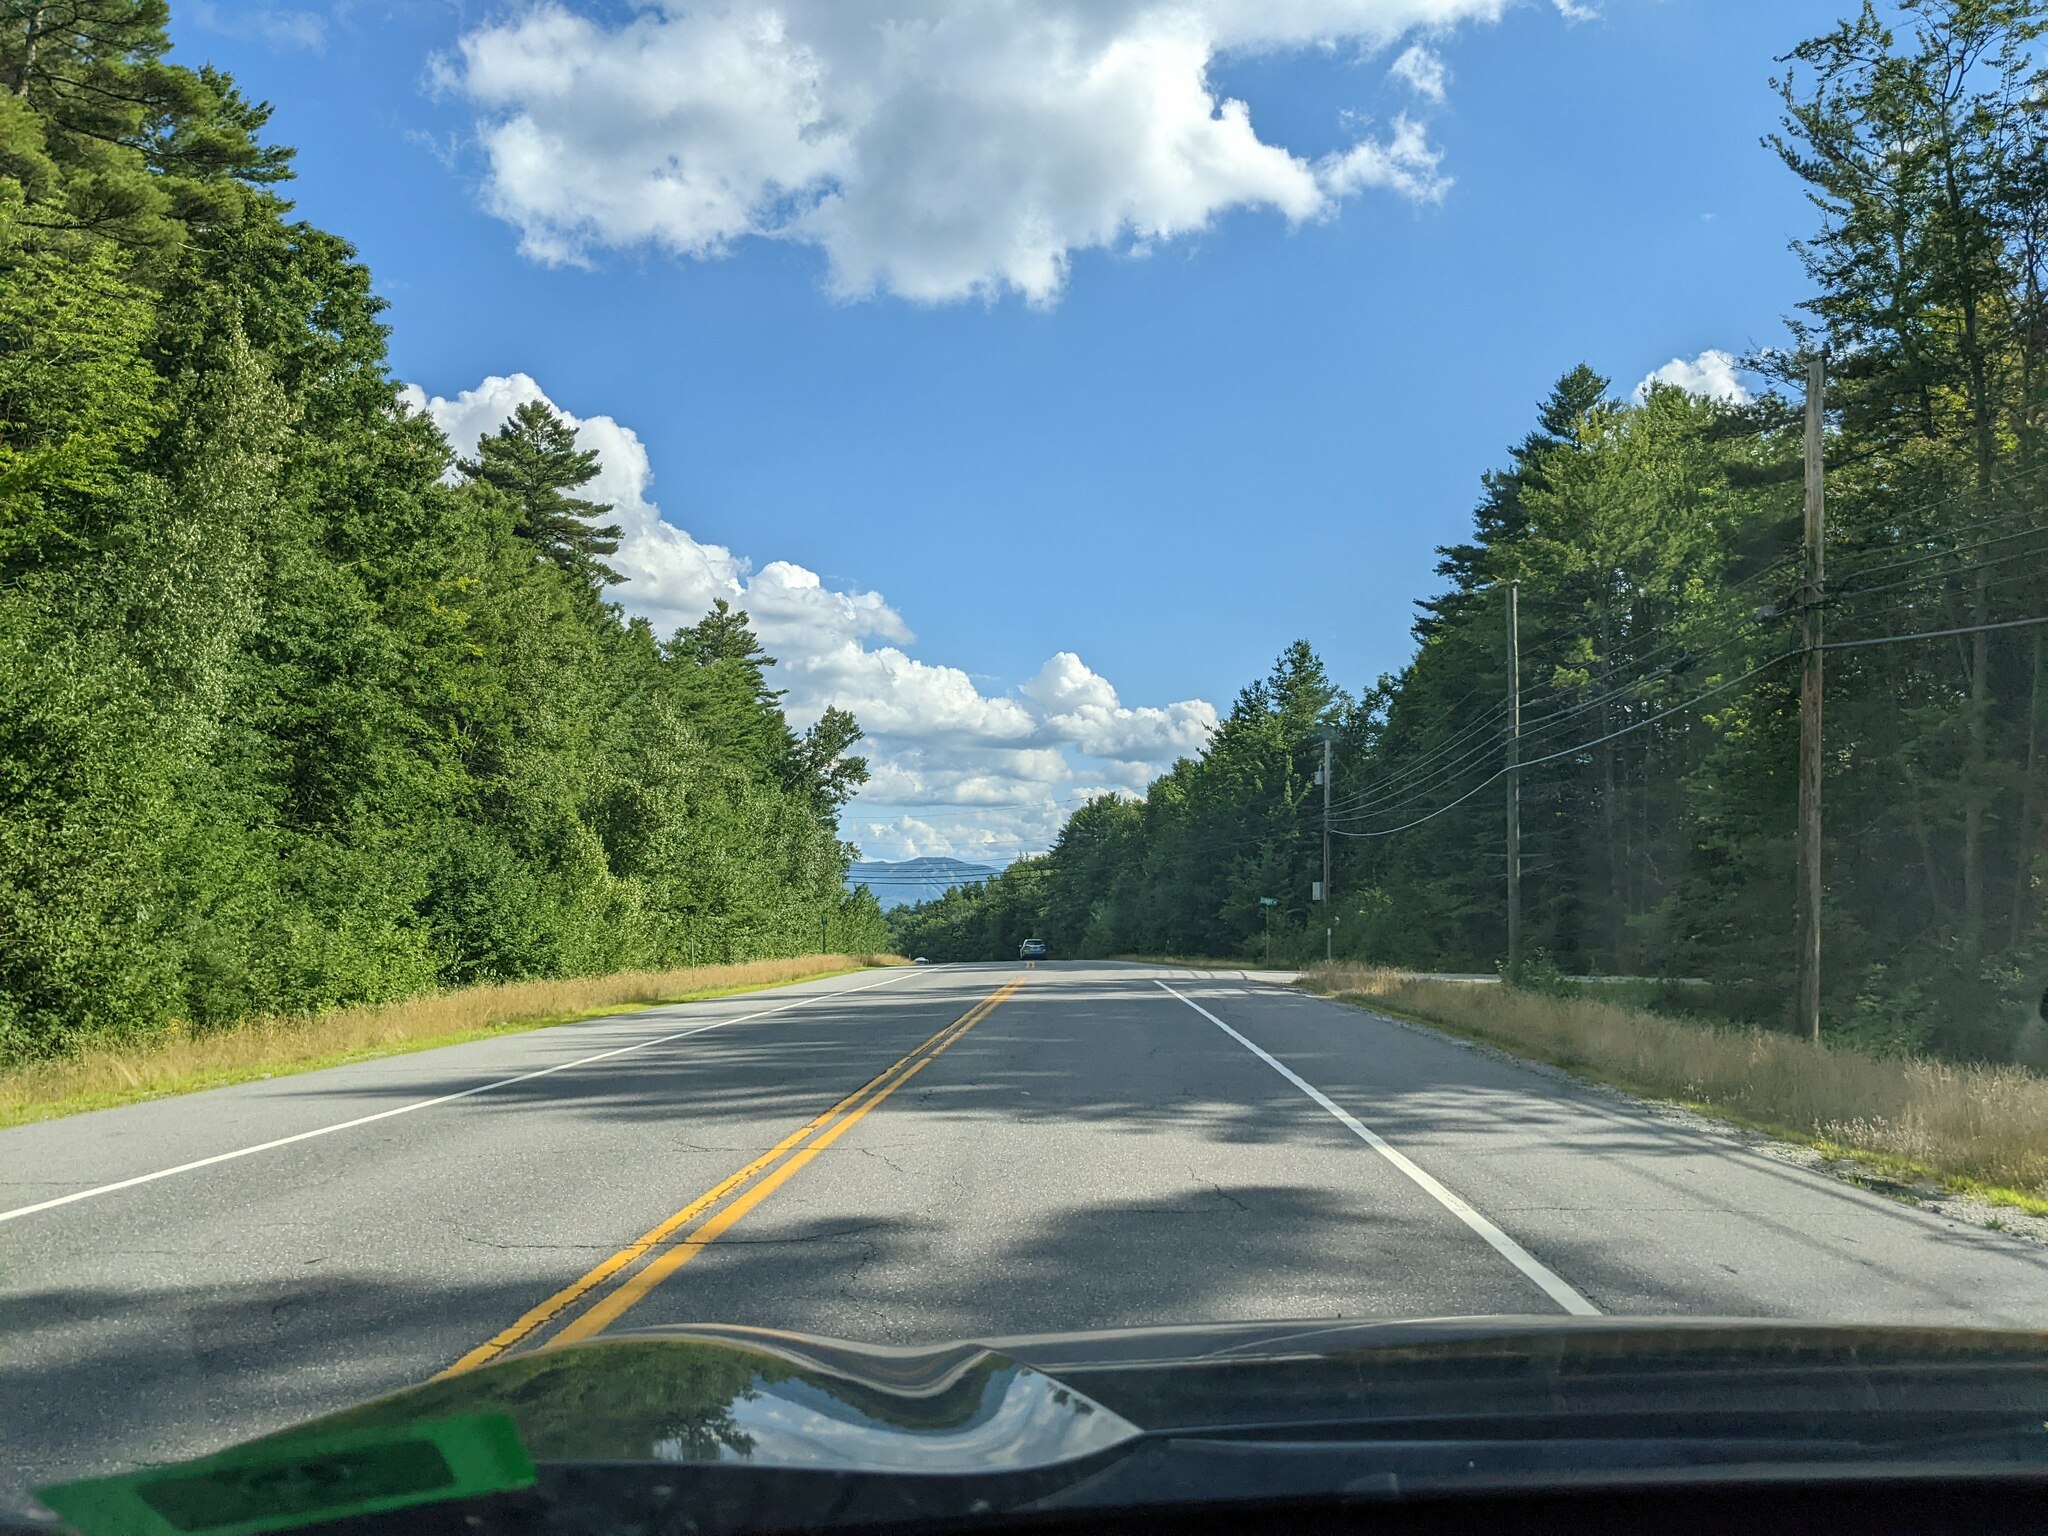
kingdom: Plantae
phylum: Tracheophyta
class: Pinopsida
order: Pinales
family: Pinaceae
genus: Pinus
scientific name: Pinus strobus
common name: Weymouth pine
